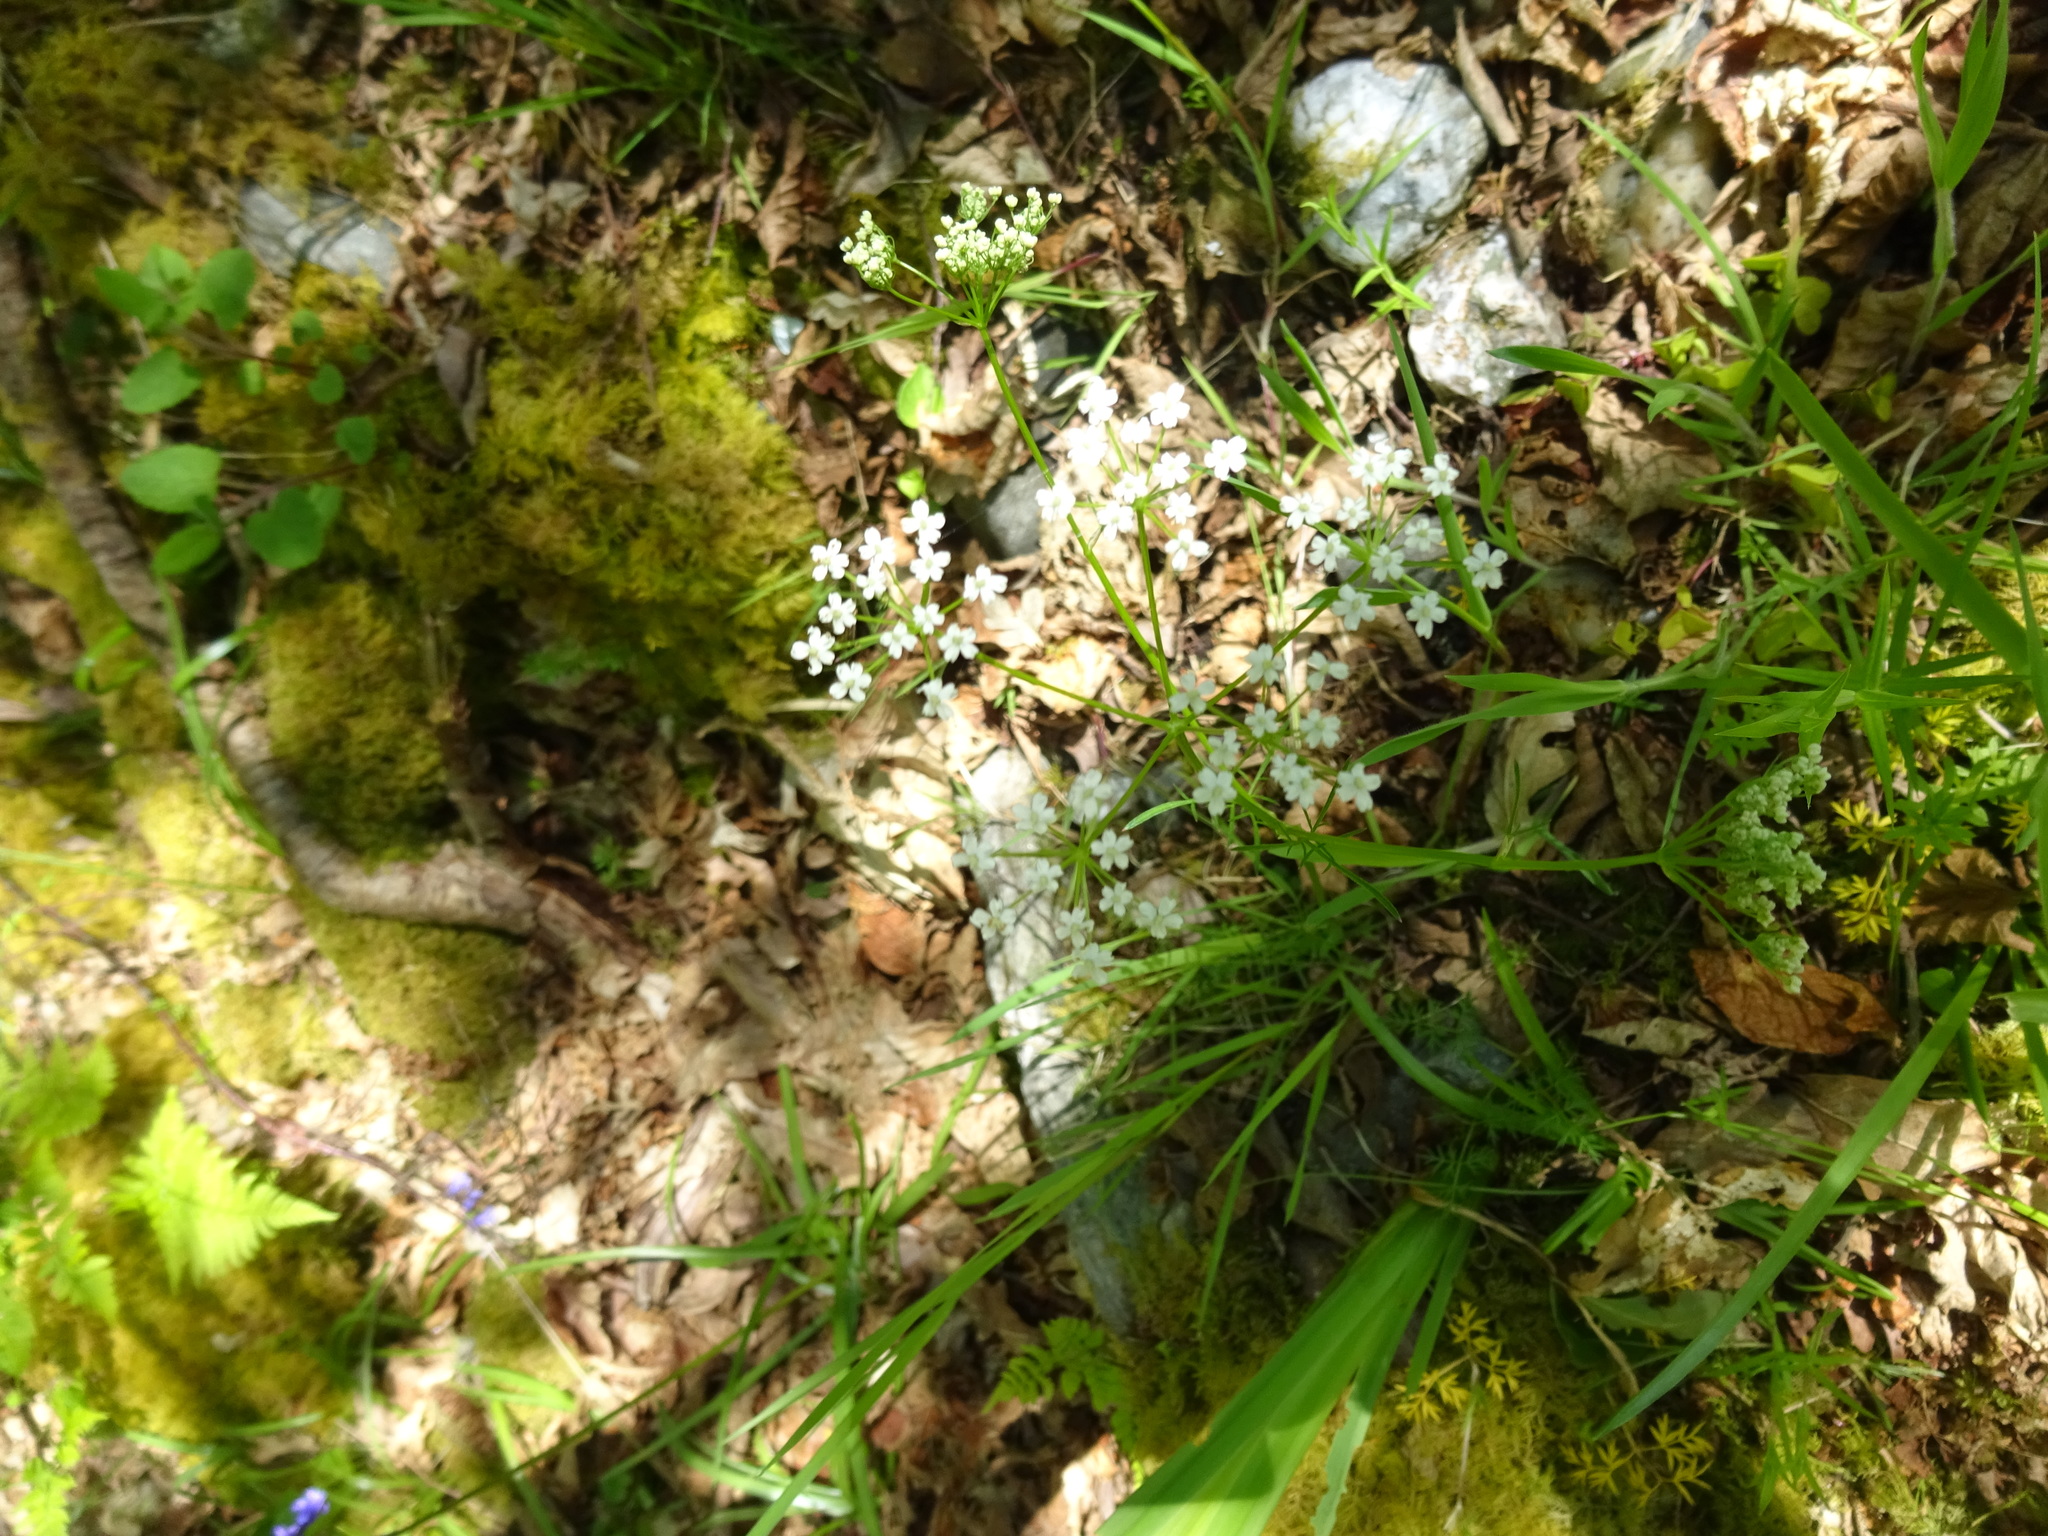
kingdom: Plantae
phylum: Tracheophyta
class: Magnoliopsida
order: Apiales
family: Apiaceae
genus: Conopodium
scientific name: Conopodium majus
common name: Pignut
